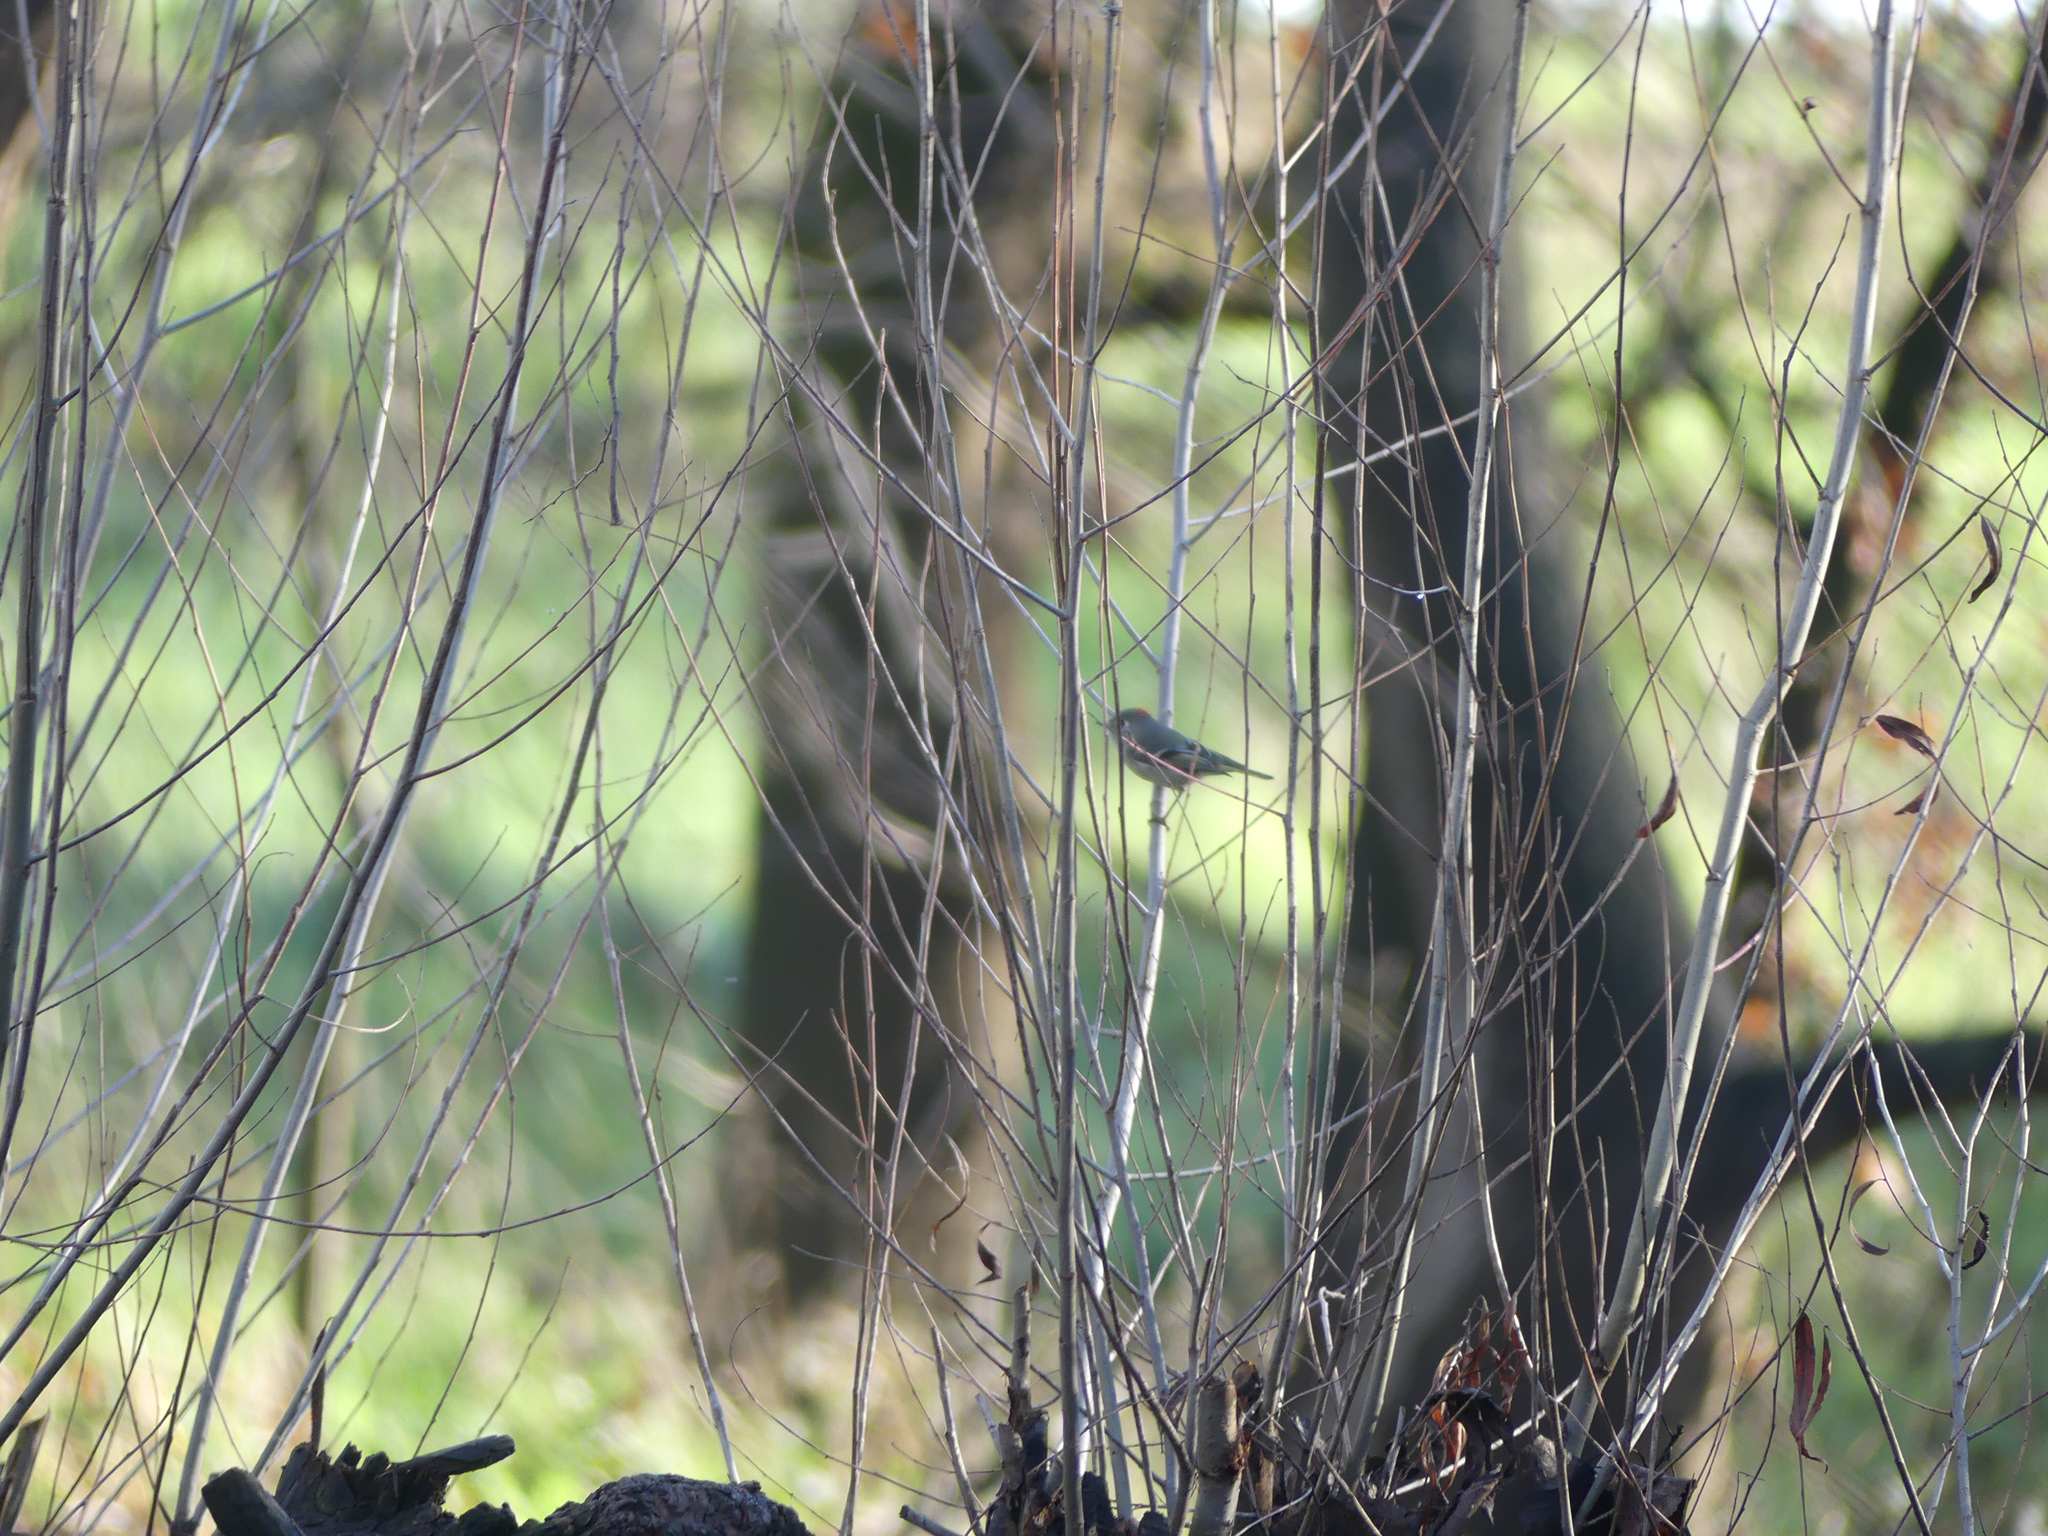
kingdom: Animalia
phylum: Chordata
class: Aves
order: Passeriformes
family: Regulidae
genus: Regulus
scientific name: Regulus calendula
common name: Ruby-crowned kinglet
